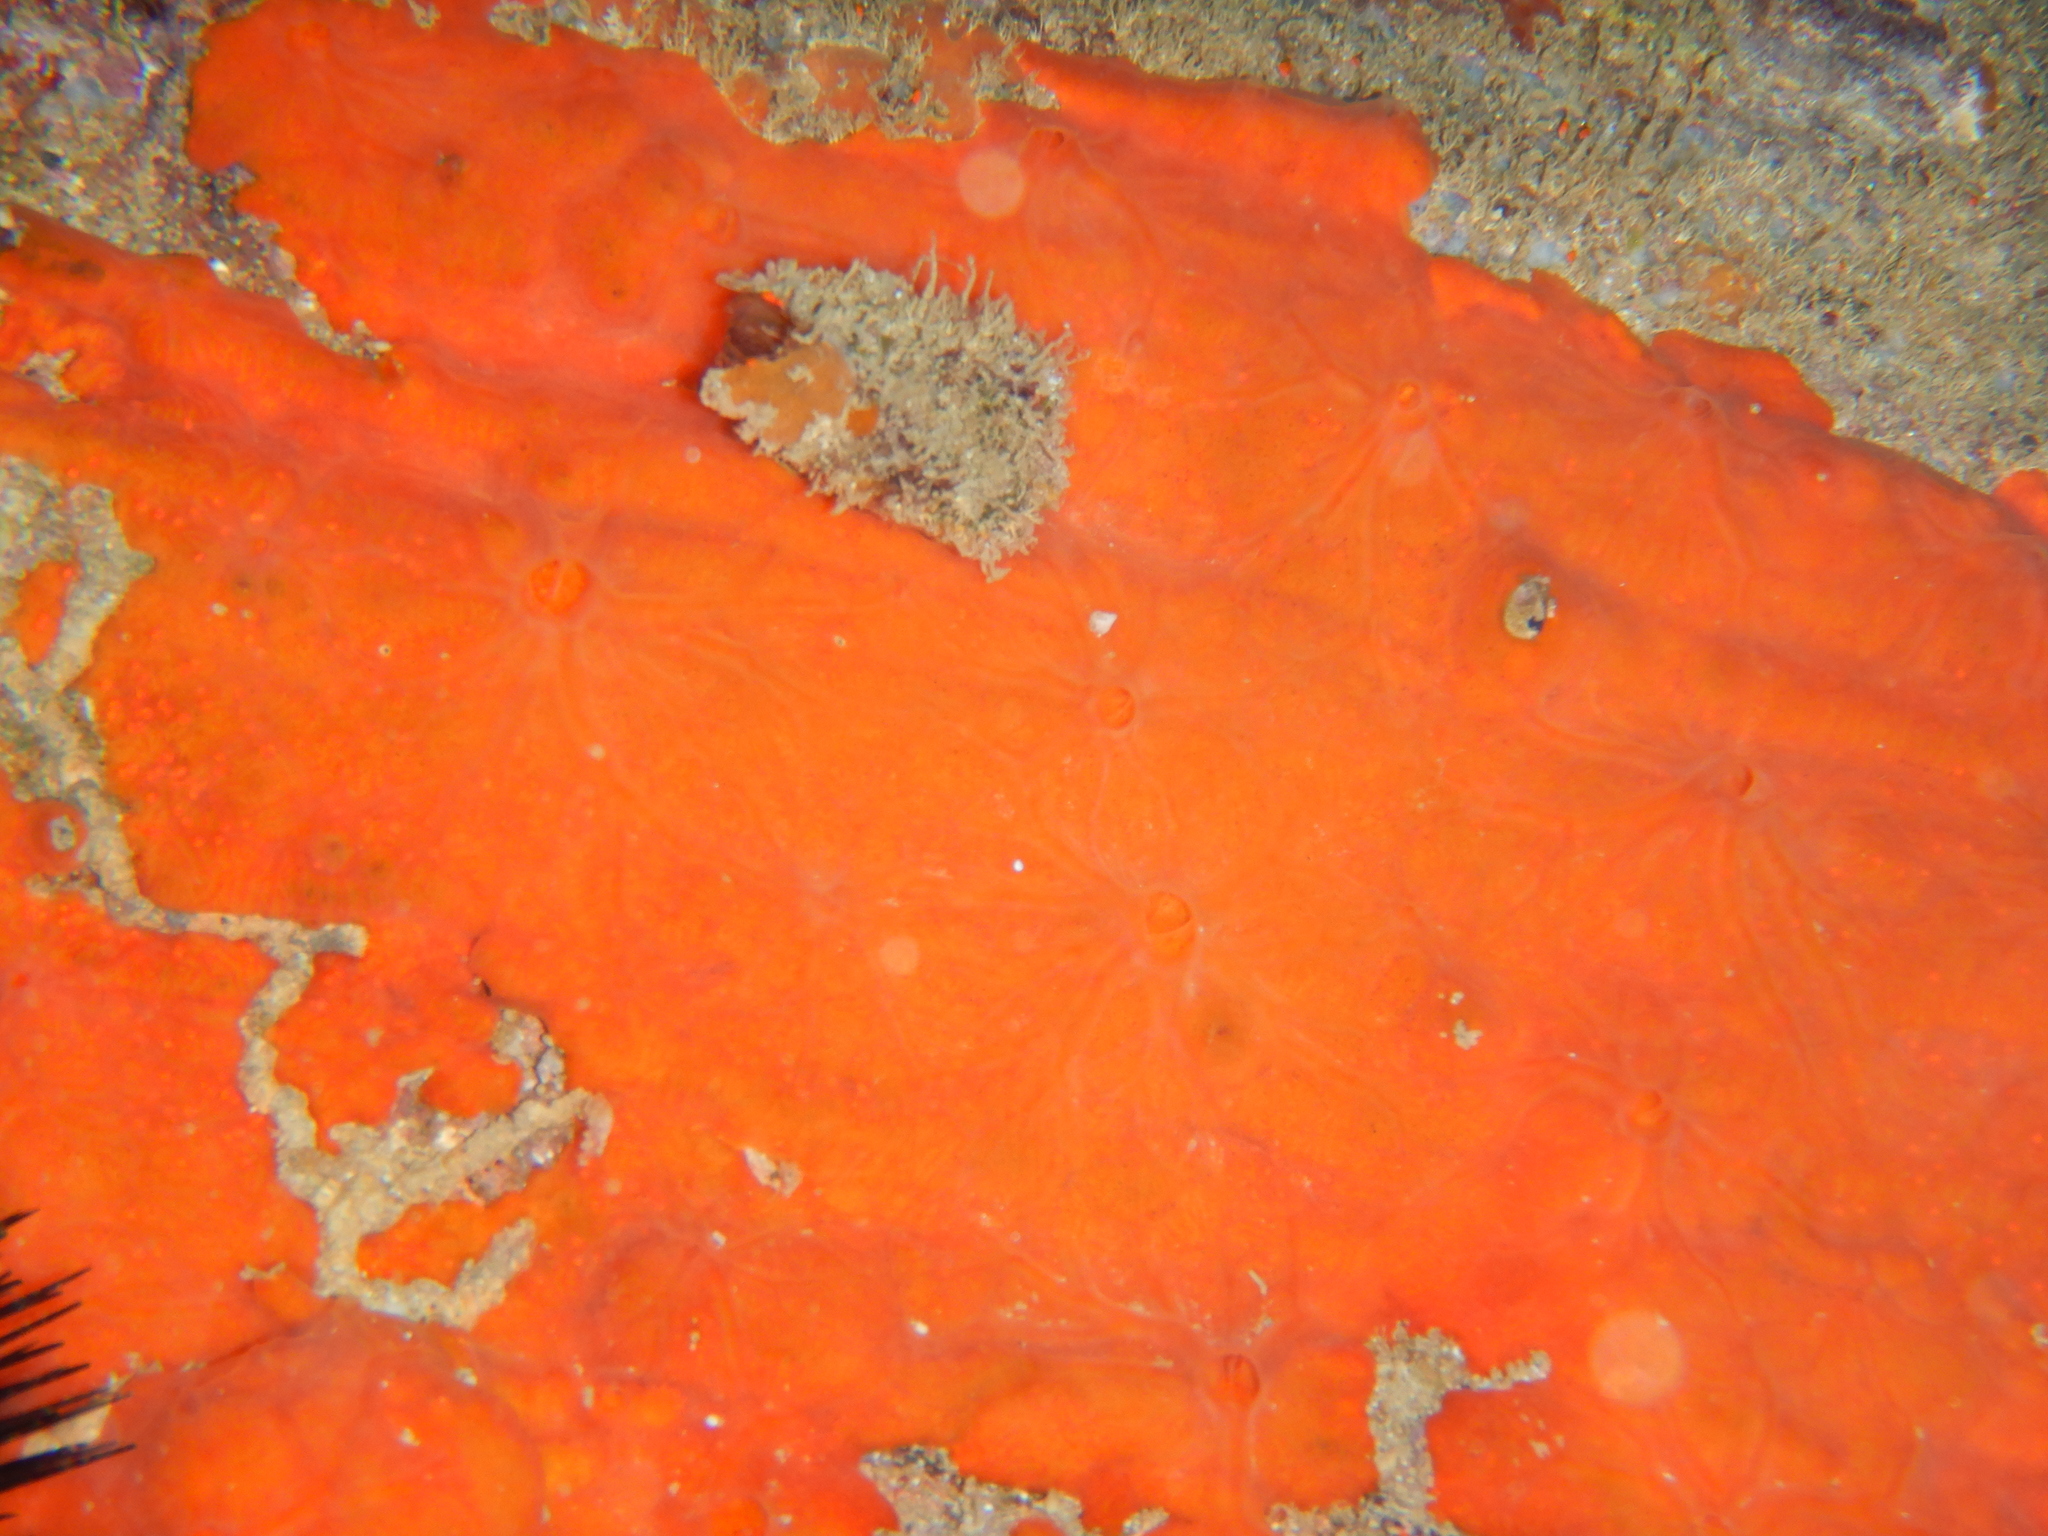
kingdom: Animalia
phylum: Porifera
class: Demospongiae
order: Poecilosclerida
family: Crambeidae
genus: Crambe
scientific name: Crambe crambe
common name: Orange-red encrusting sponge
